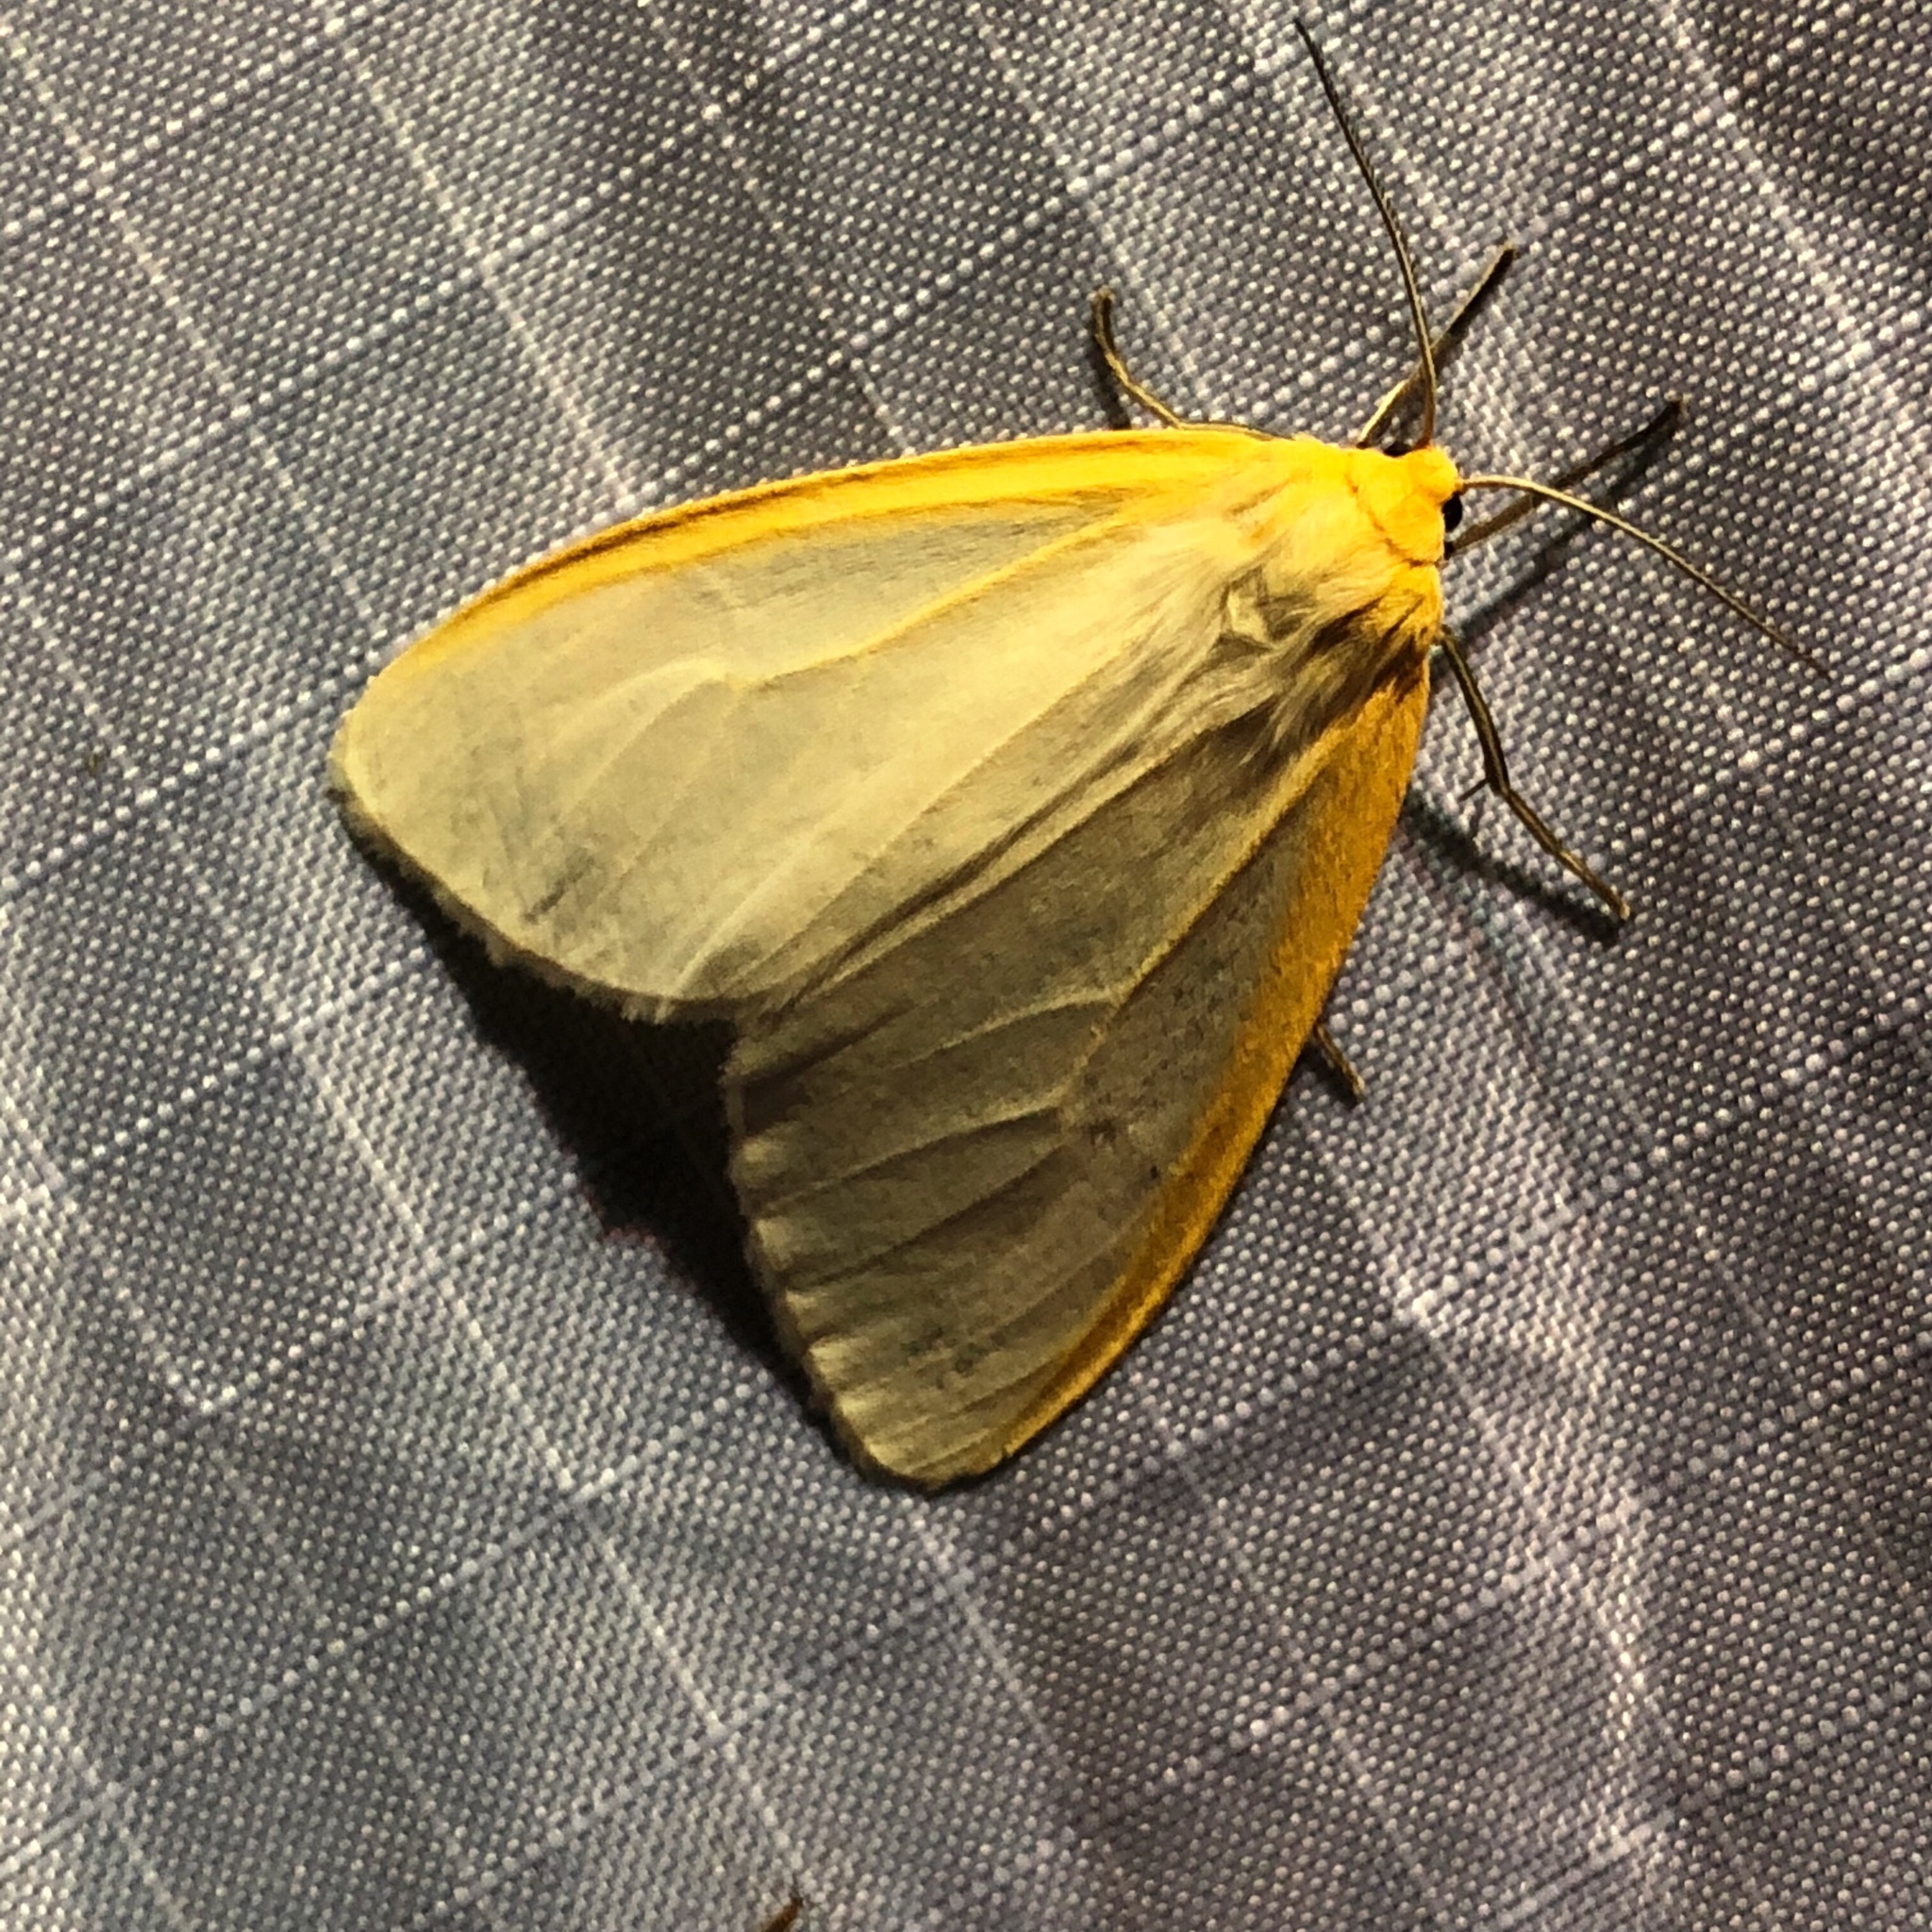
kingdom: Animalia
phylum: Arthropoda
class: Insecta
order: Lepidoptera
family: Erebidae
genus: Cycnia
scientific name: Cycnia tenera
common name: Delicate cycnia moth
